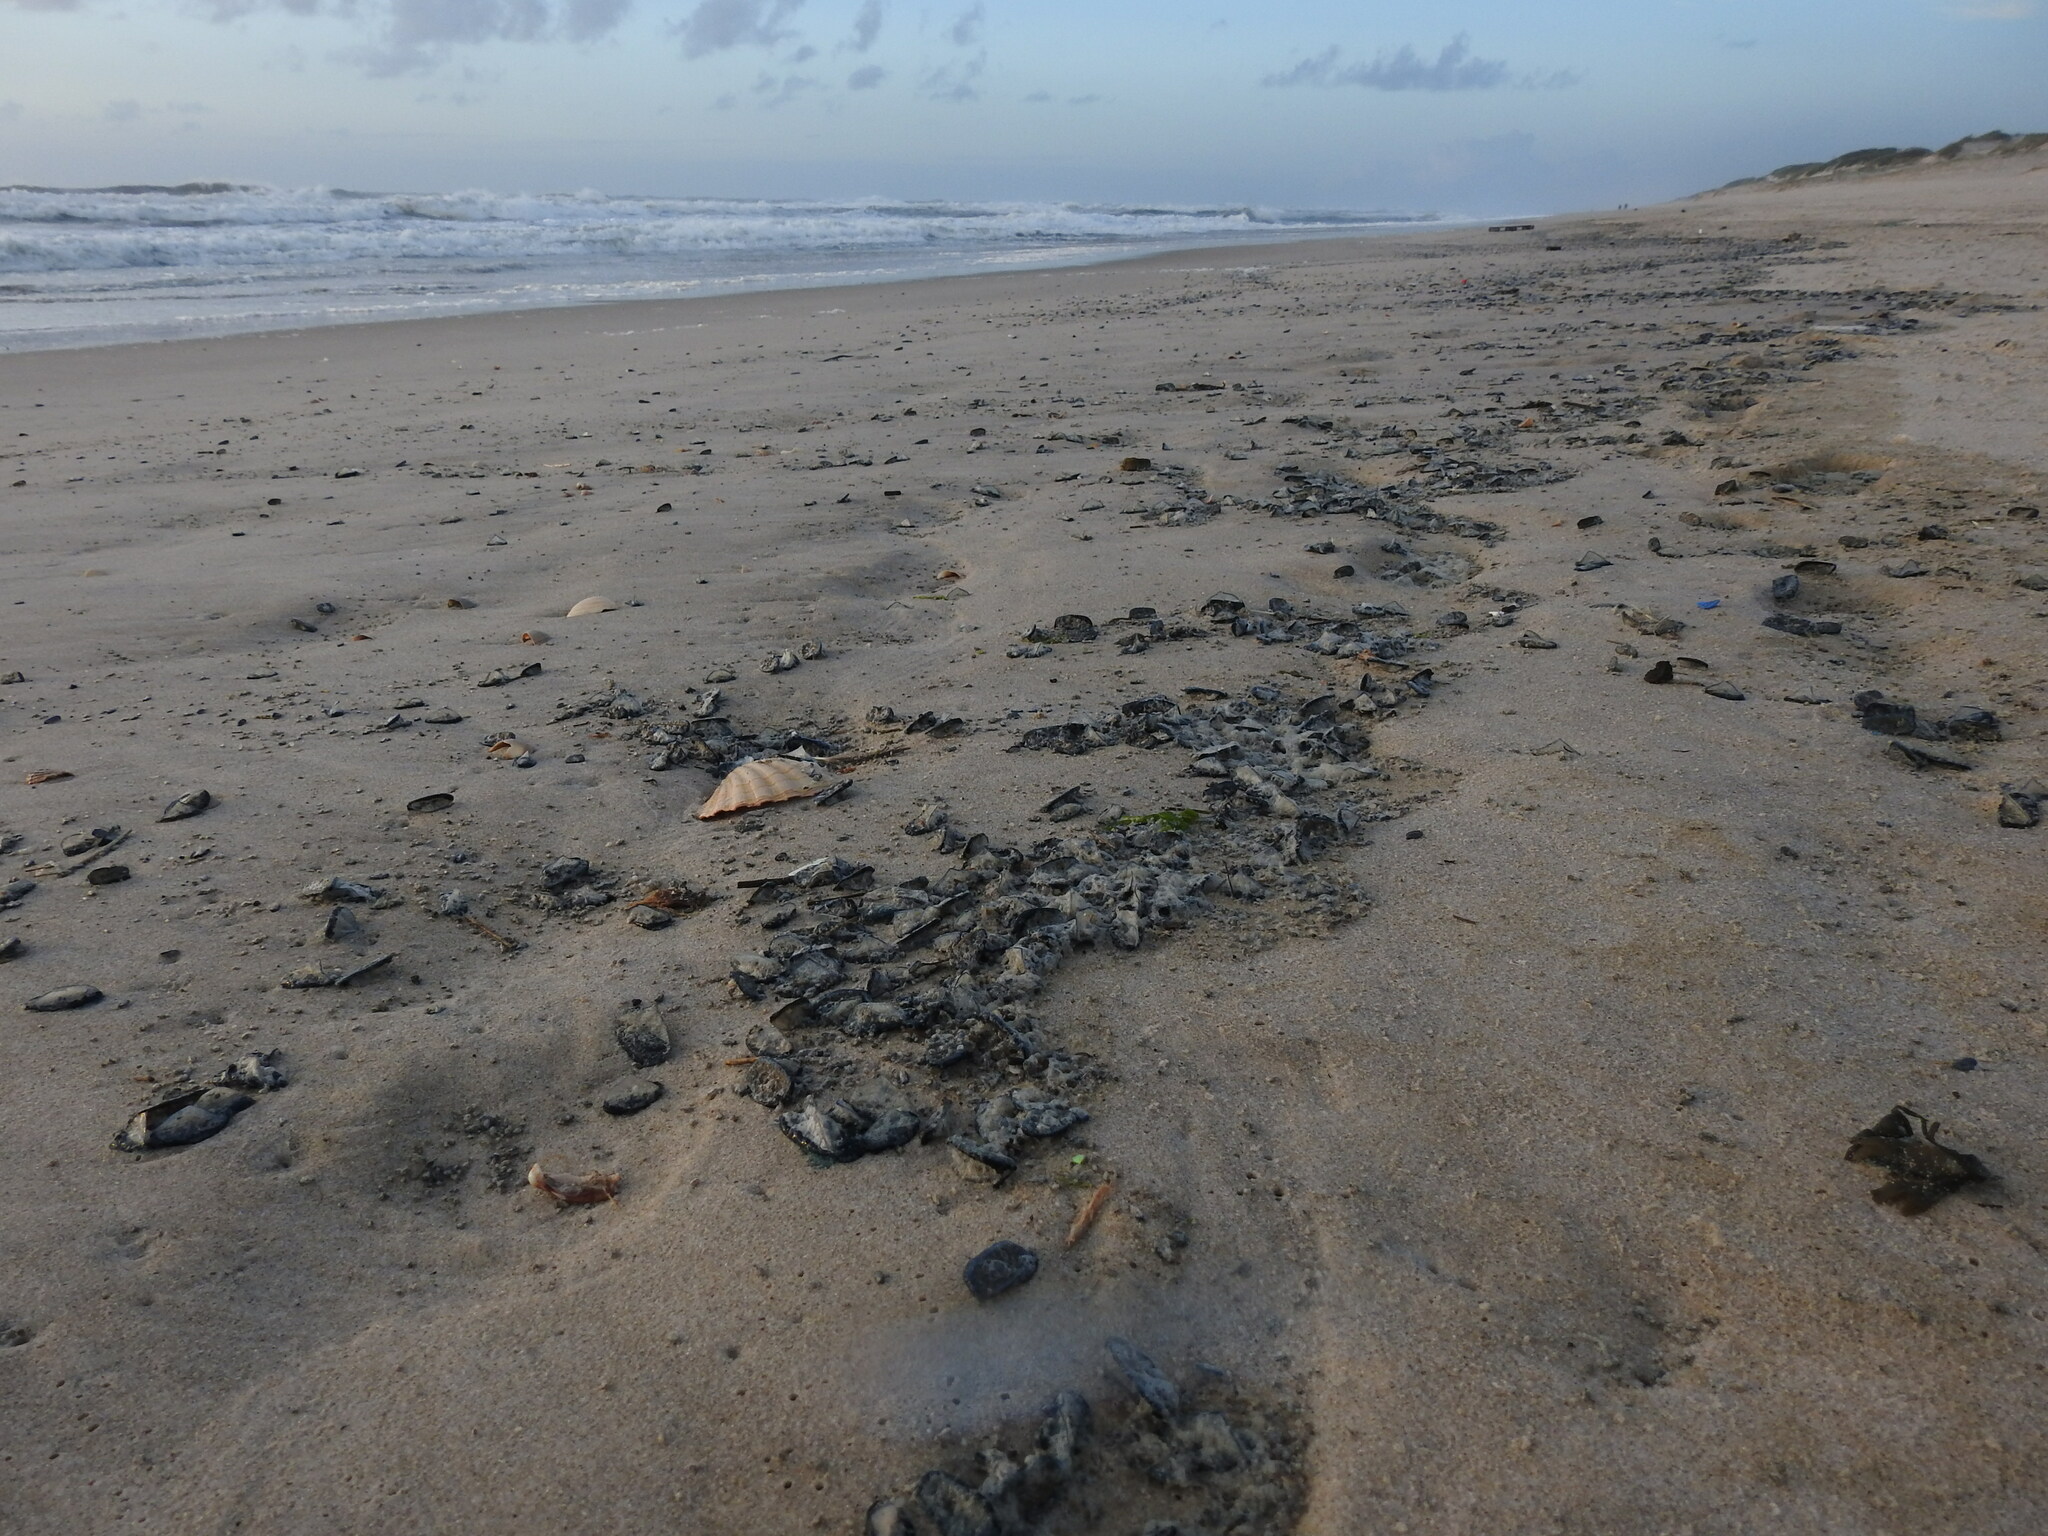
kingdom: Animalia
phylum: Cnidaria
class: Hydrozoa
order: Anthoathecata
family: Porpitidae
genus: Velella
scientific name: Velella velella
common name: By-the-wind-sailor
